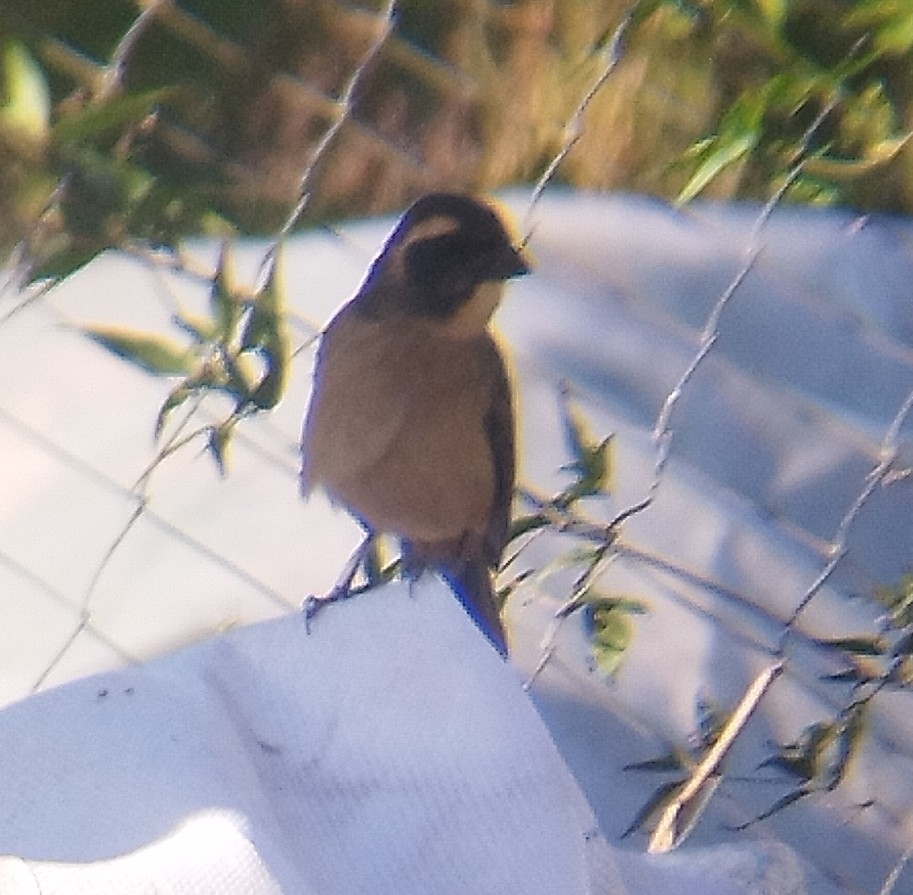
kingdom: Animalia
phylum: Chordata
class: Aves
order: Passeriformes
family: Thraupidae
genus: Saltator
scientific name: Saltator aurantiirostris
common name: Golden-billed saltator
